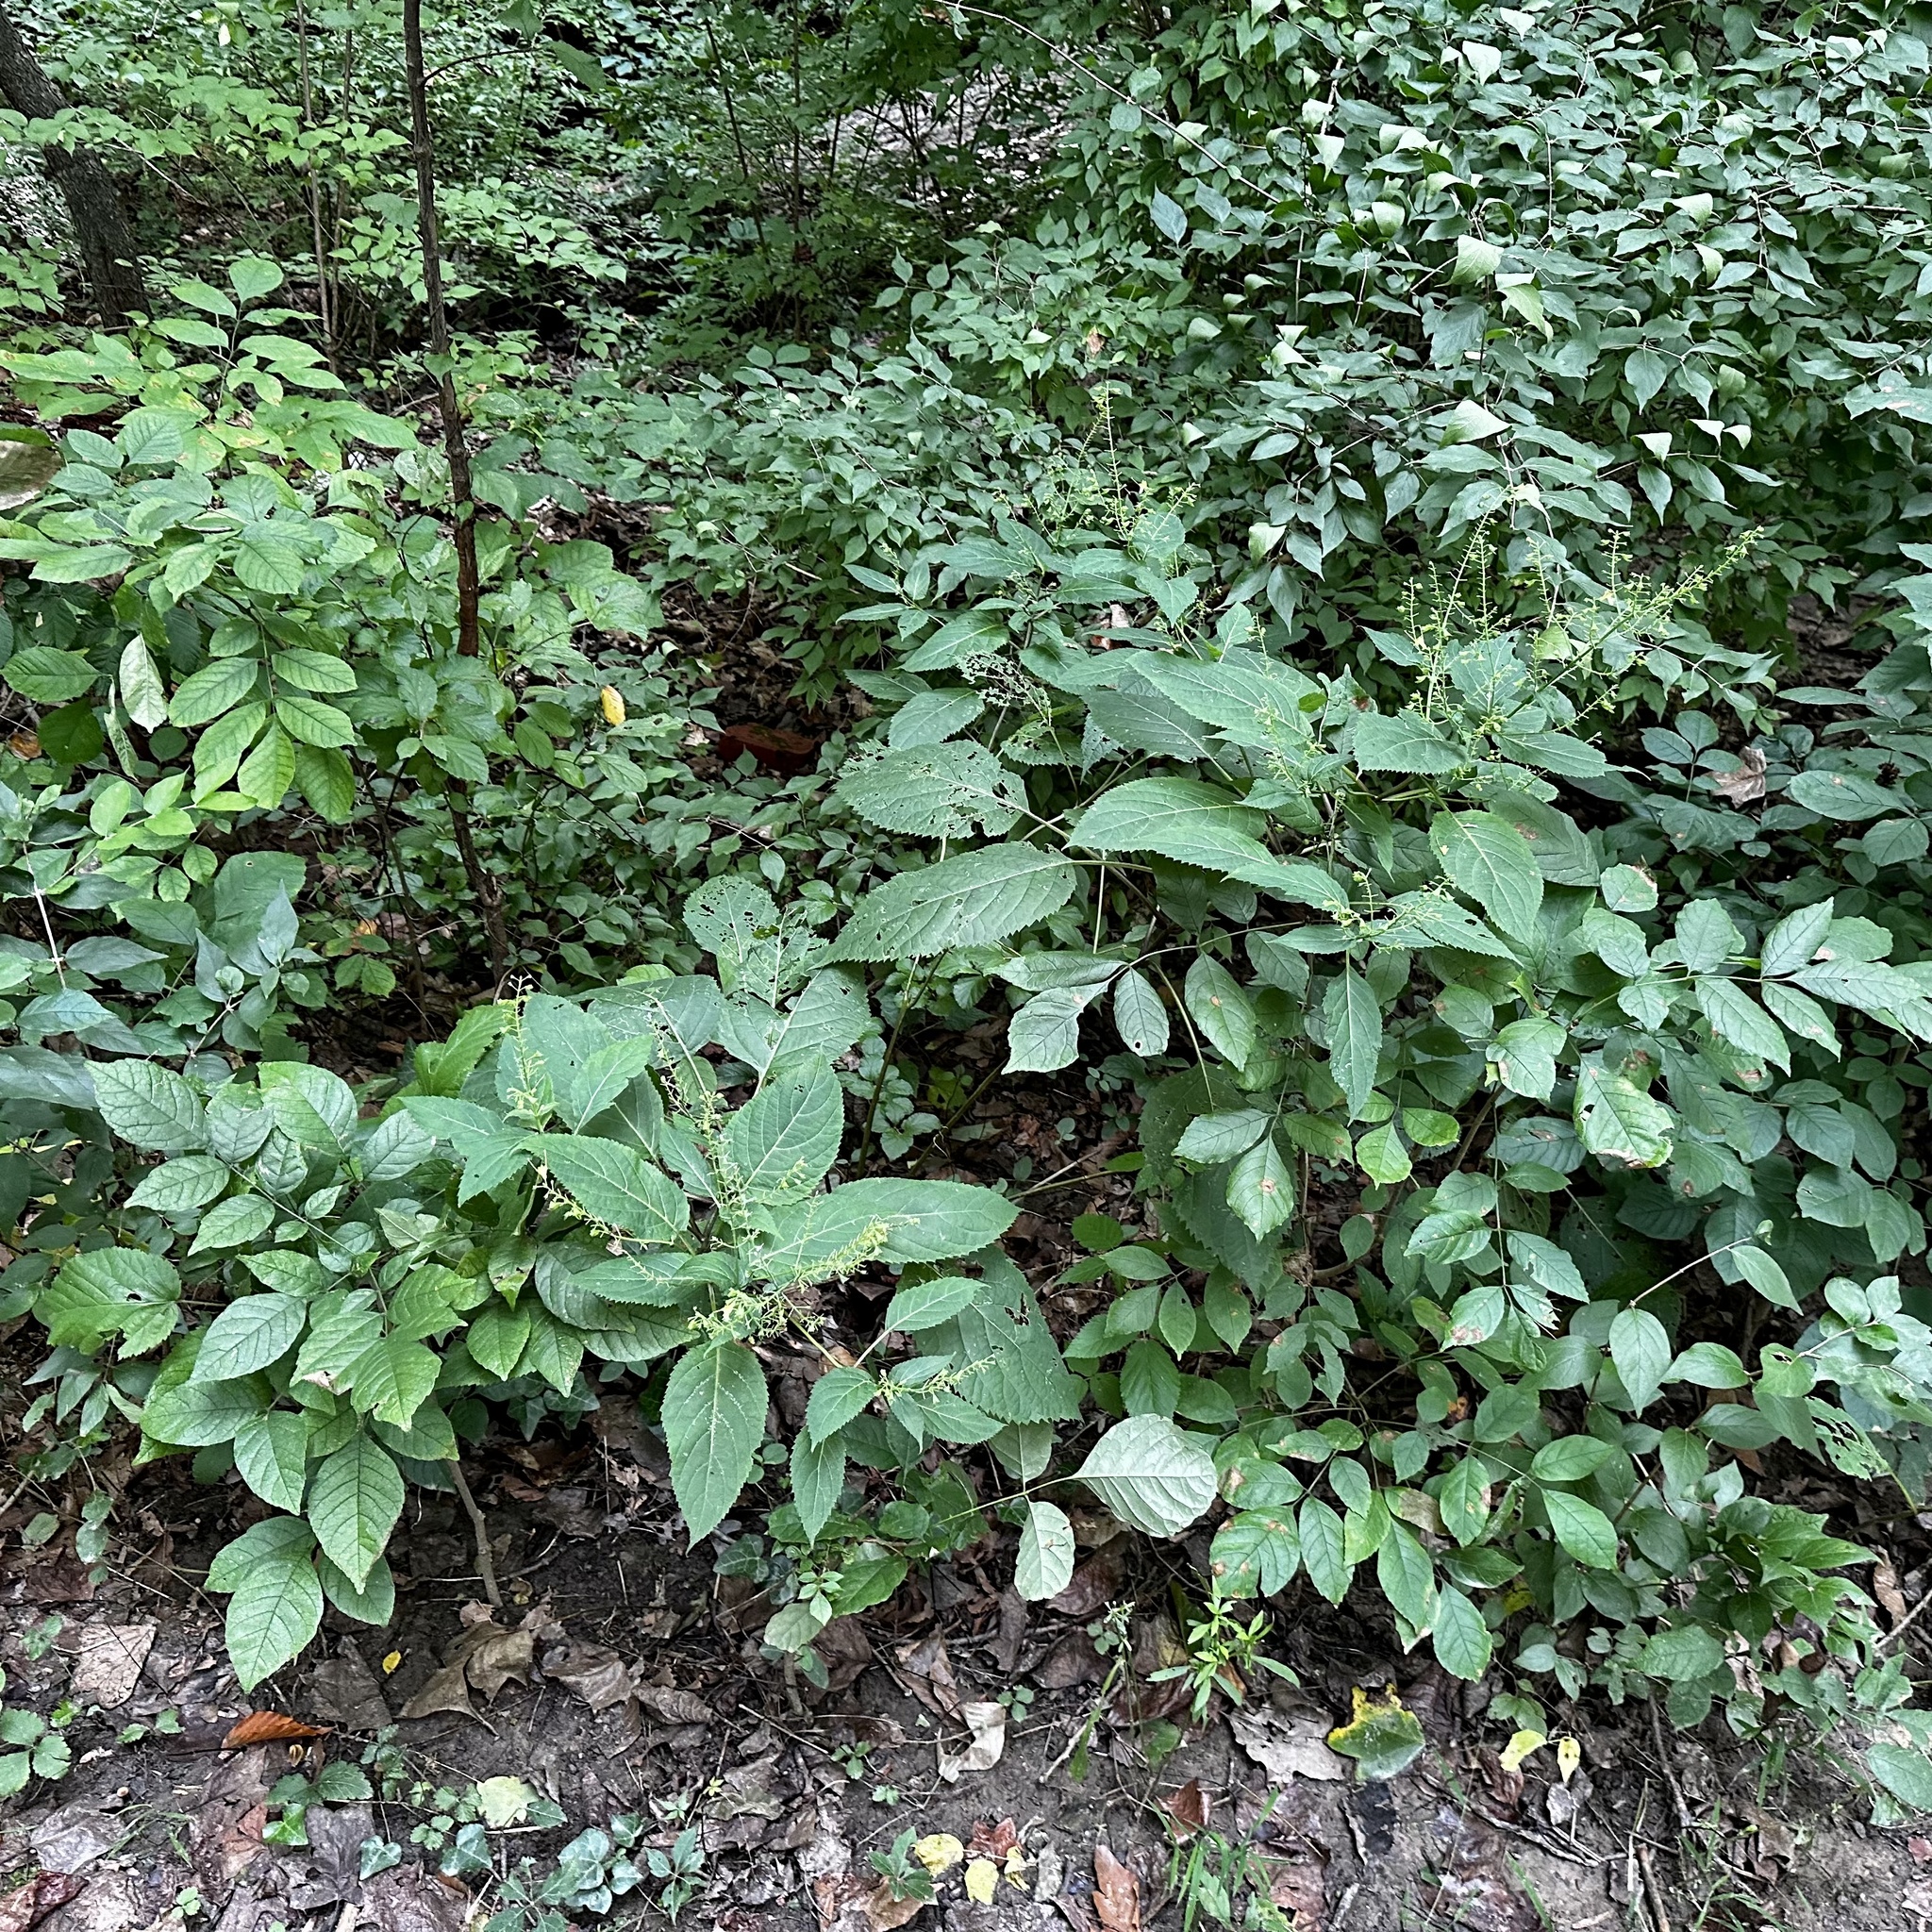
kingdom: Plantae
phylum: Tracheophyta
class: Magnoliopsida
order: Lamiales
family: Lamiaceae
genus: Collinsonia
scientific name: Collinsonia canadensis
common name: Northern horsebalm
